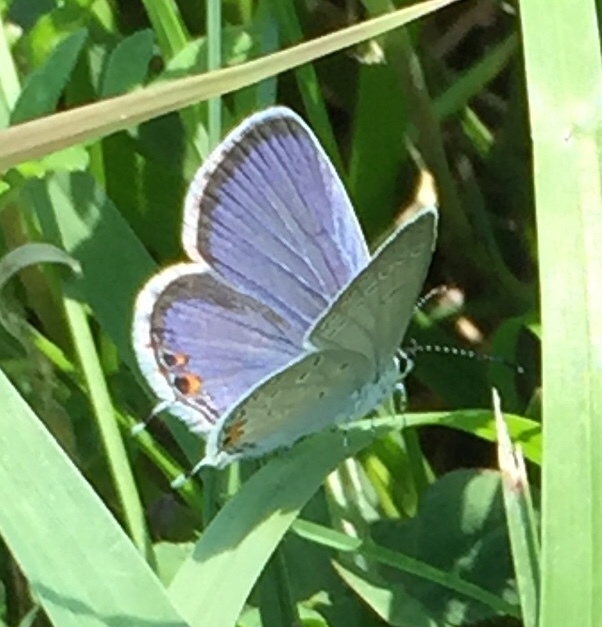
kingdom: Animalia
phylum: Arthropoda
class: Insecta
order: Lepidoptera
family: Lycaenidae
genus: Elkalyce
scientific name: Elkalyce comyntas
